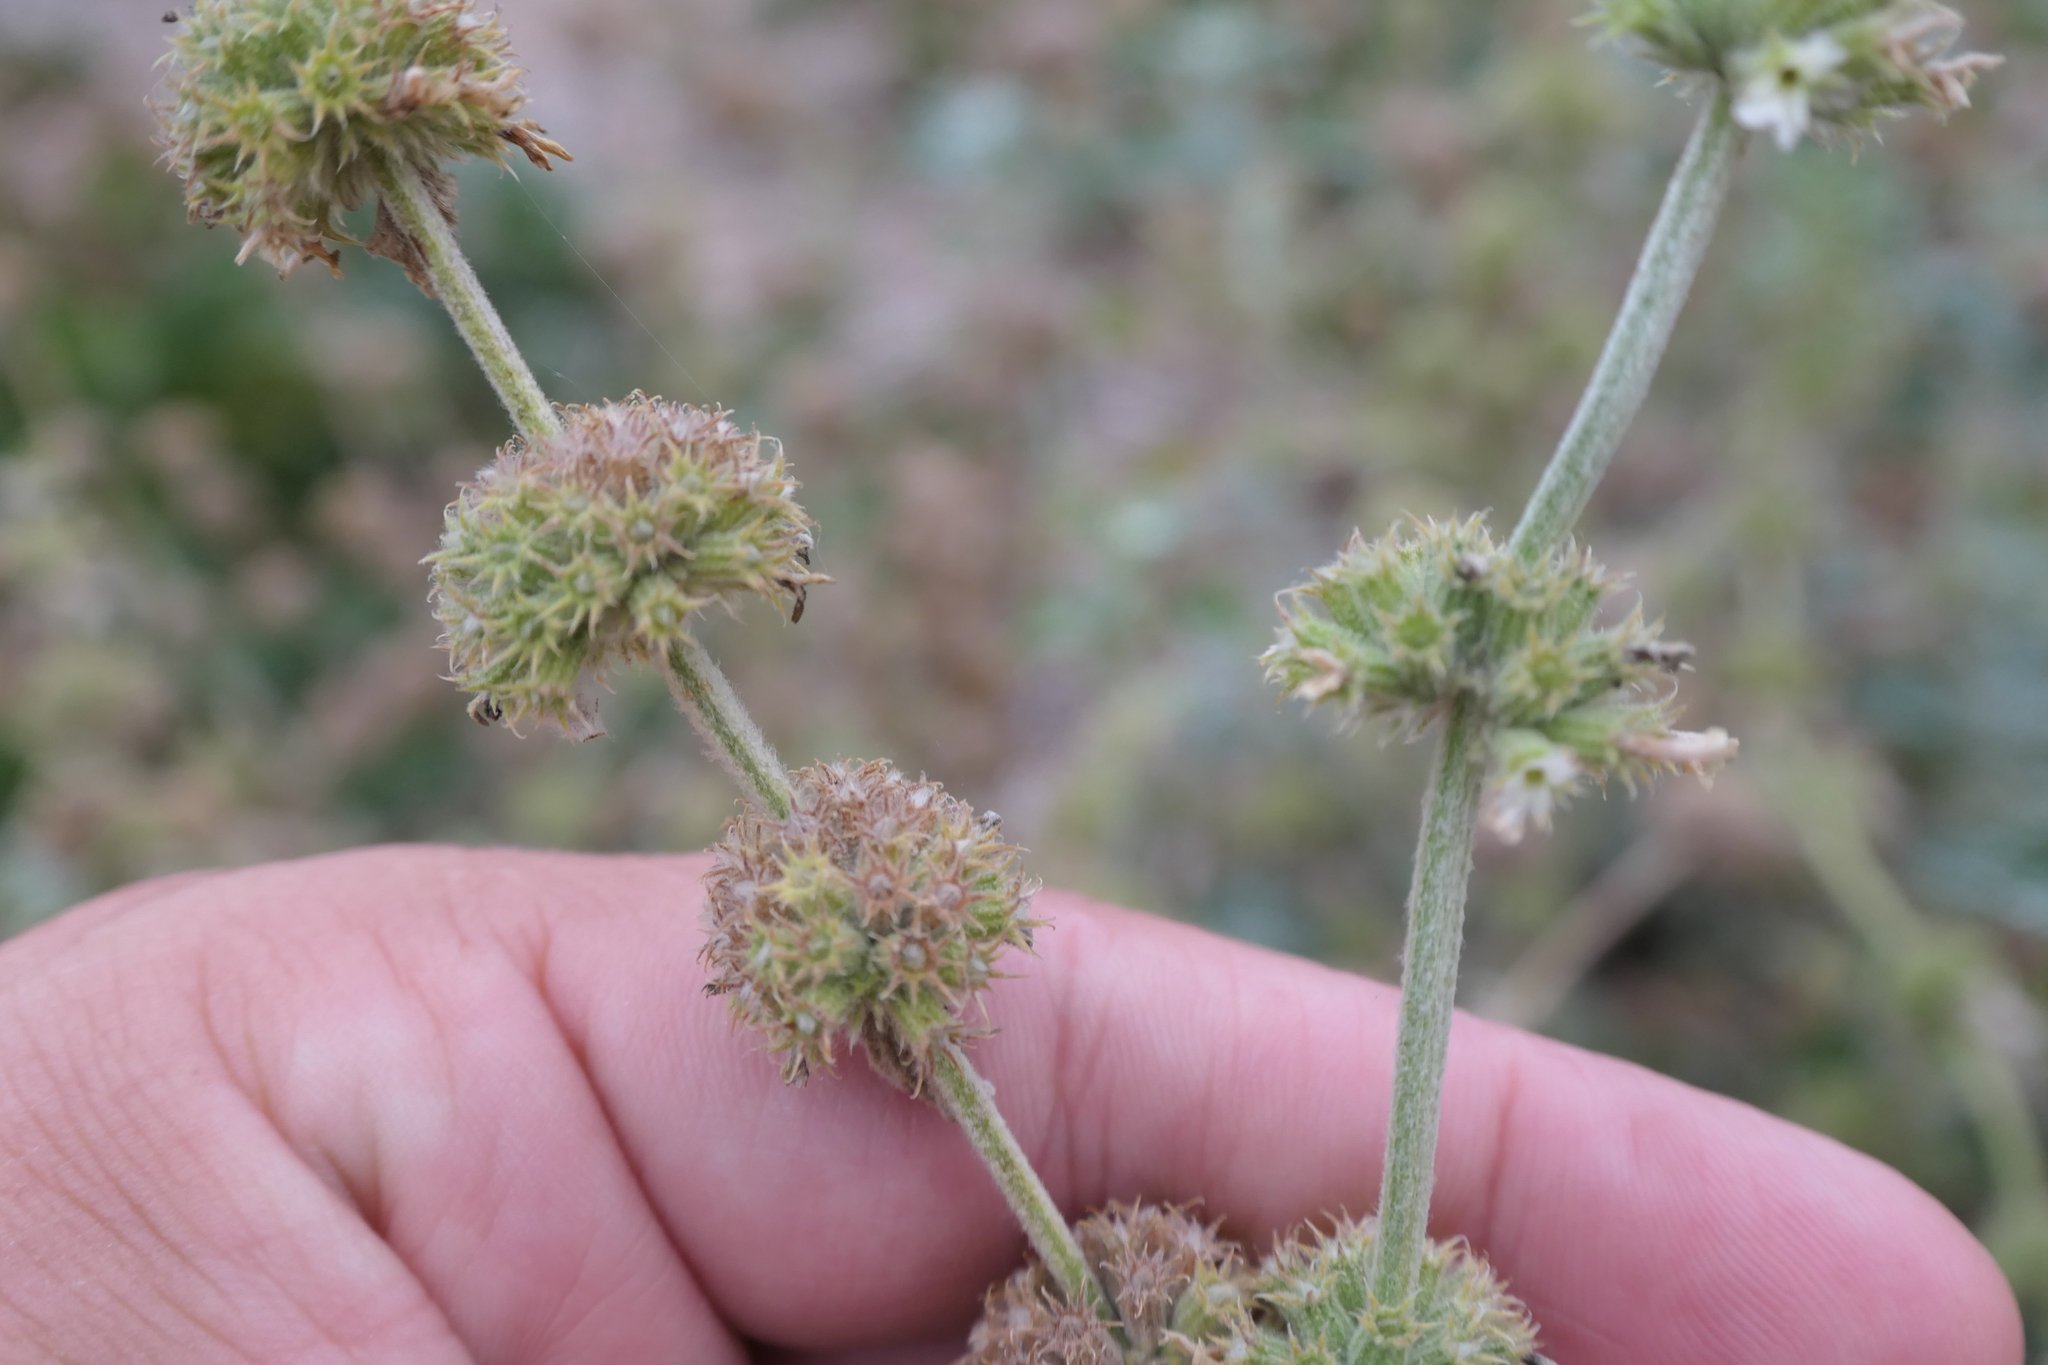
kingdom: Plantae
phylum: Tracheophyta
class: Magnoliopsida
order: Lamiales
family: Lamiaceae
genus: Marrubium
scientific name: Marrubium vulgare
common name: Horehound
